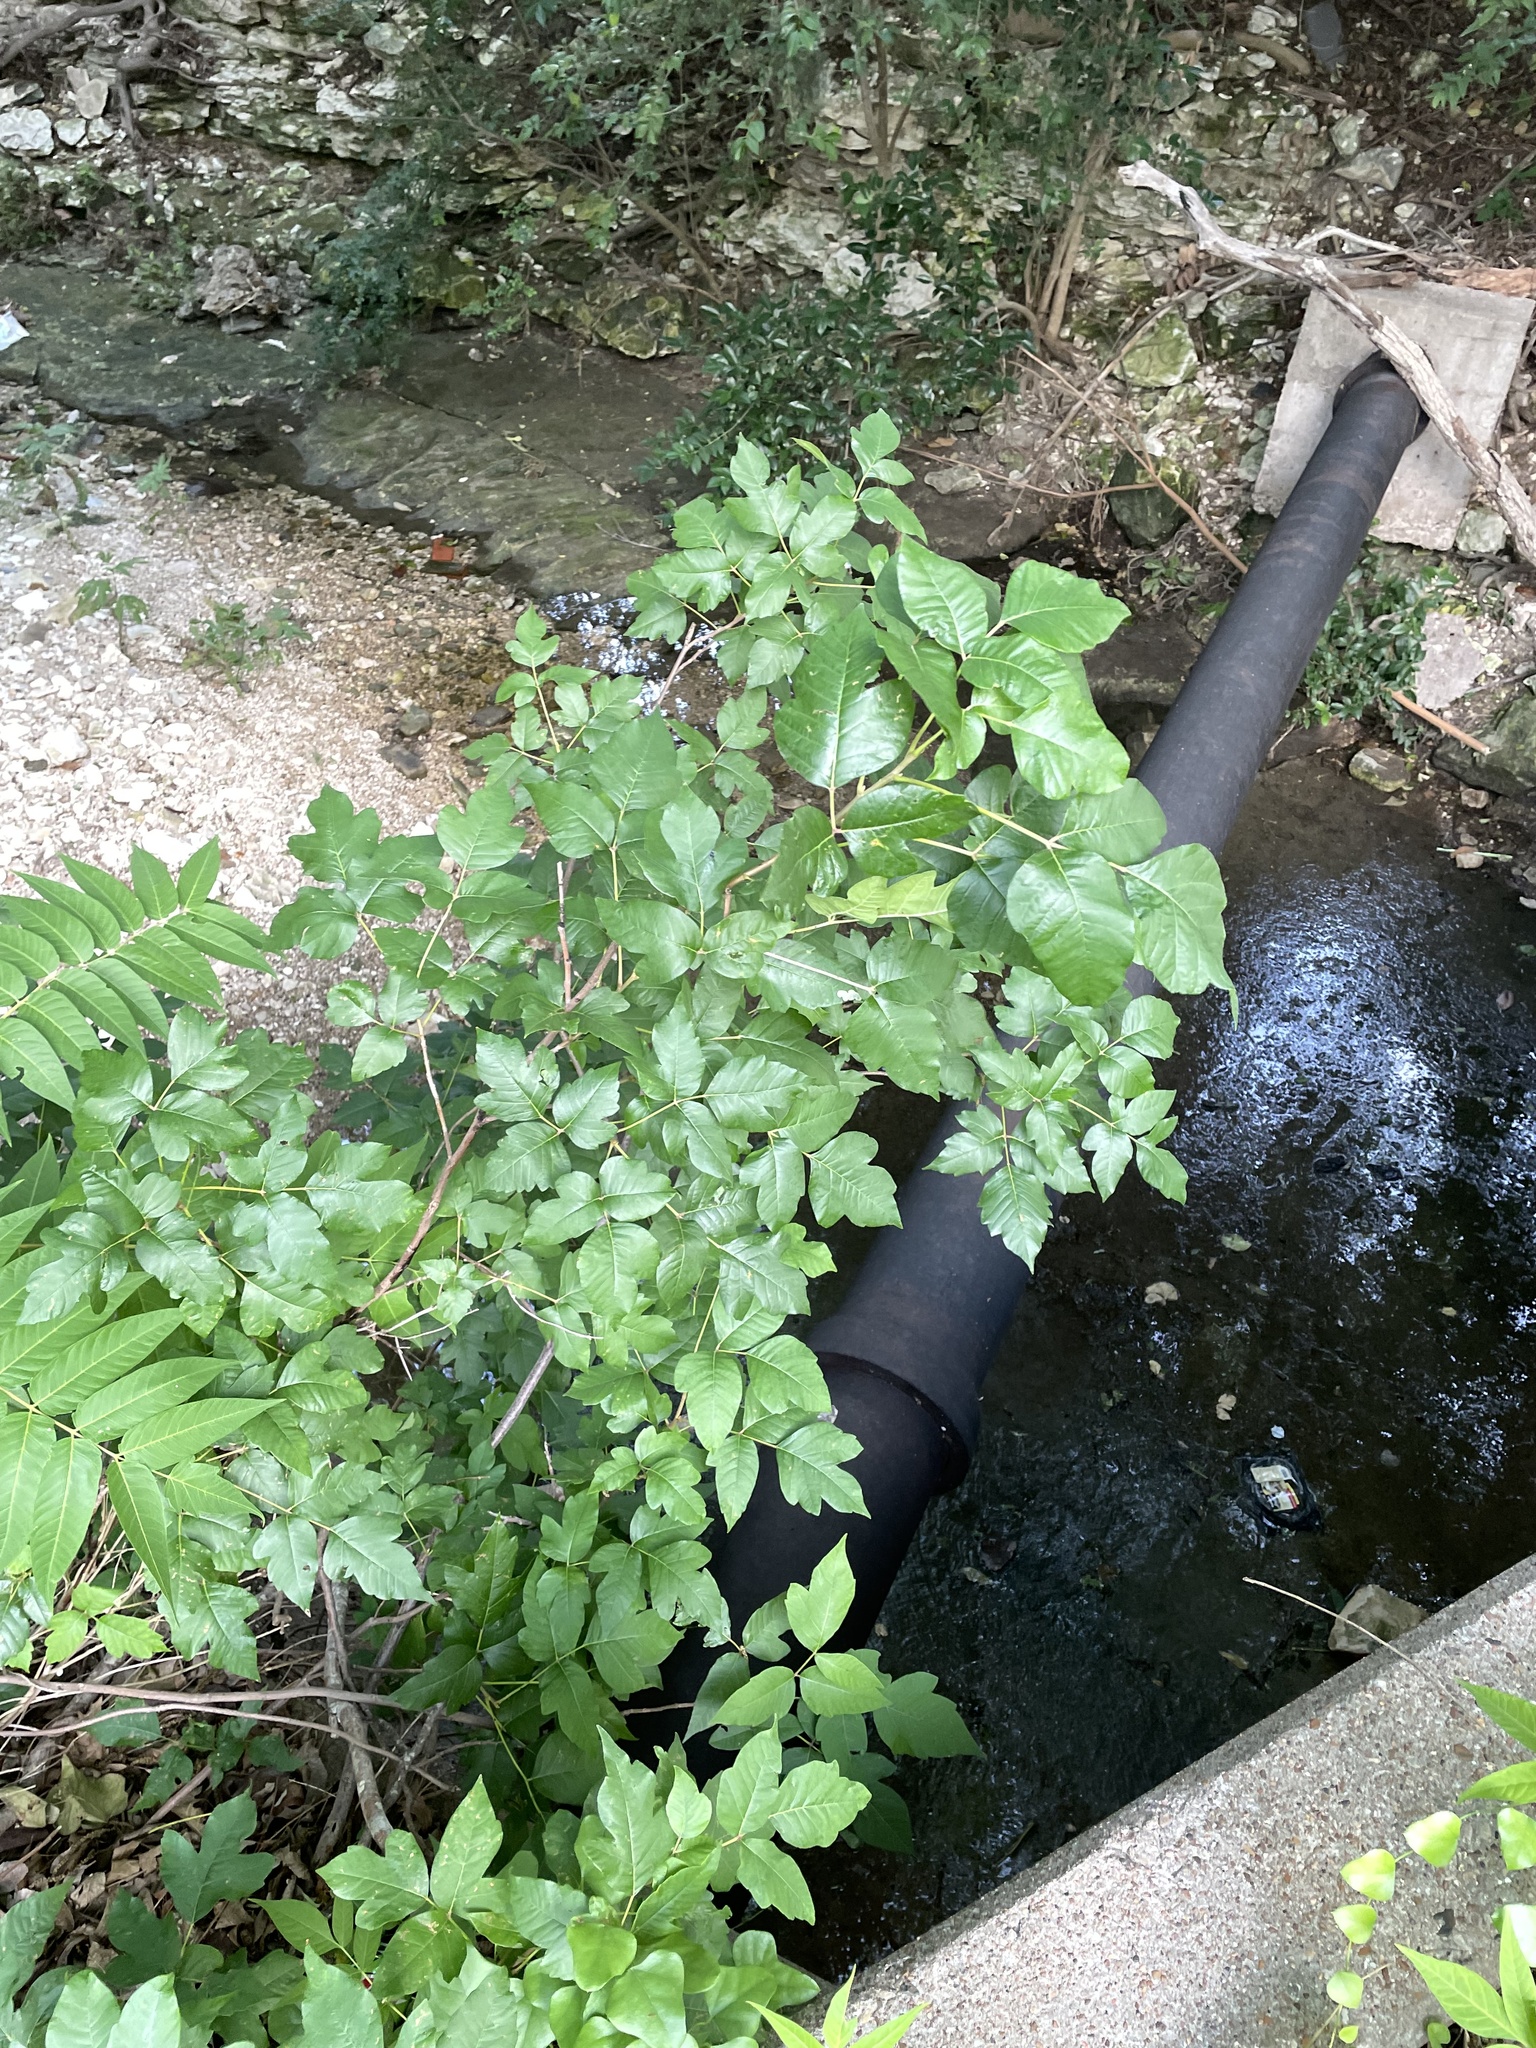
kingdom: Plantae
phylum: Tracheophyta
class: Magnoliopsida
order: Sapindales
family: Anacardiaceae
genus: Toxicodendron
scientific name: Toxicodendron radicans
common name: Poison ivy
